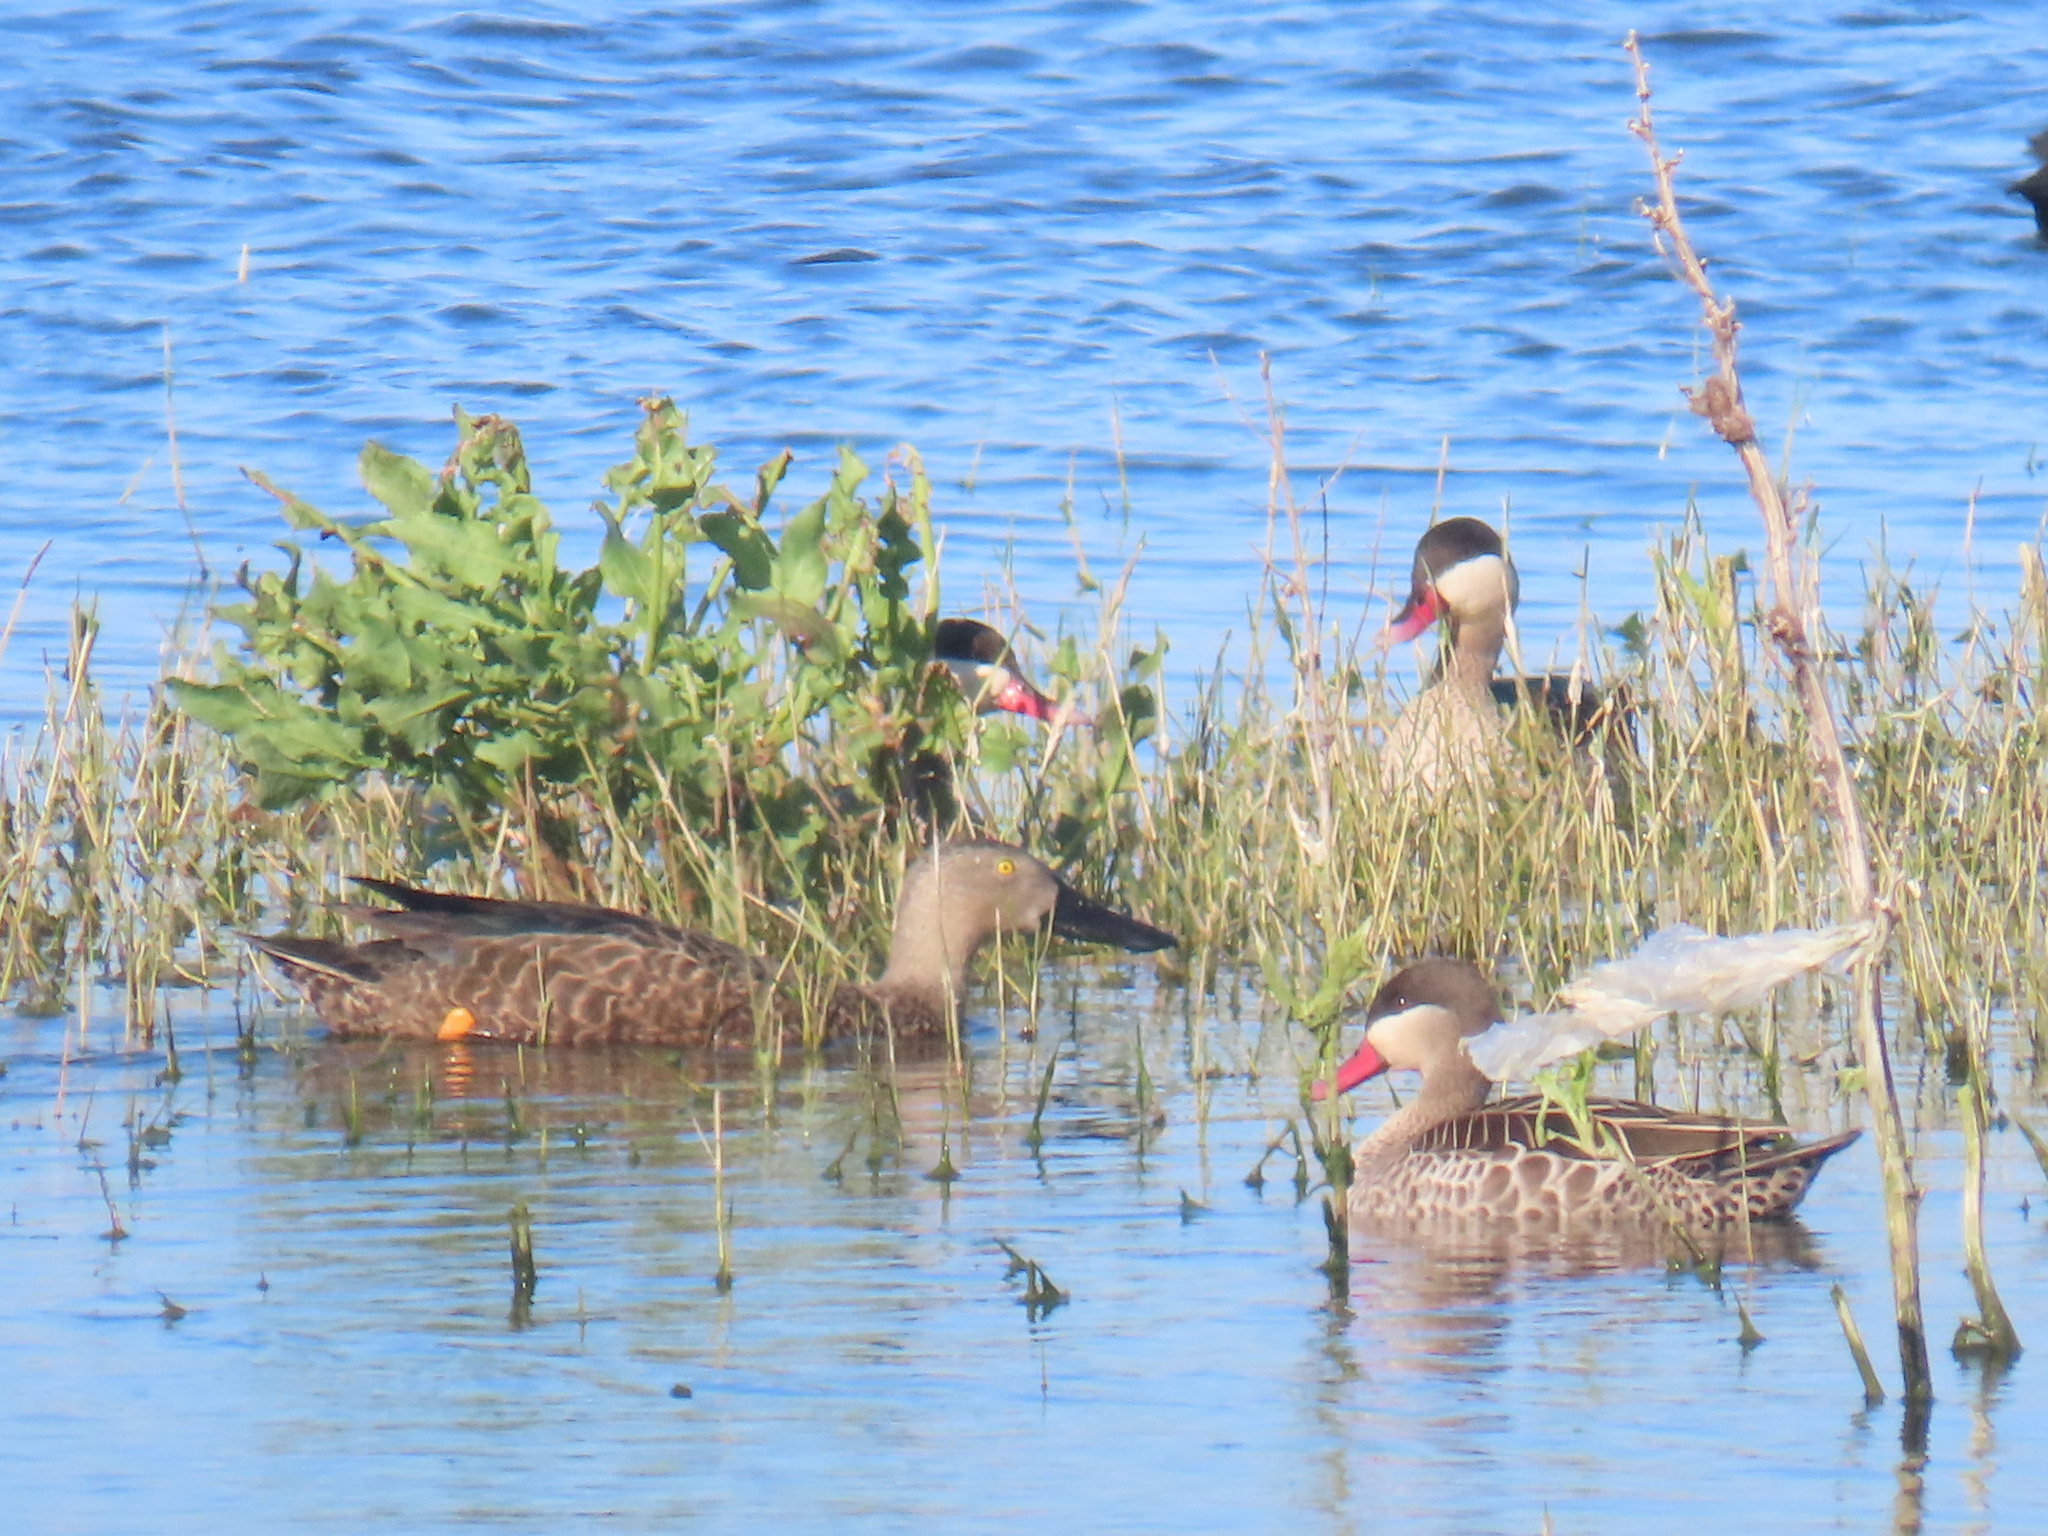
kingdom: Animalia
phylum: Chordata
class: Aves
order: Anseriformes
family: Anatidae
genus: Spatula
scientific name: Spatula smithii
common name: Cape shoveler
